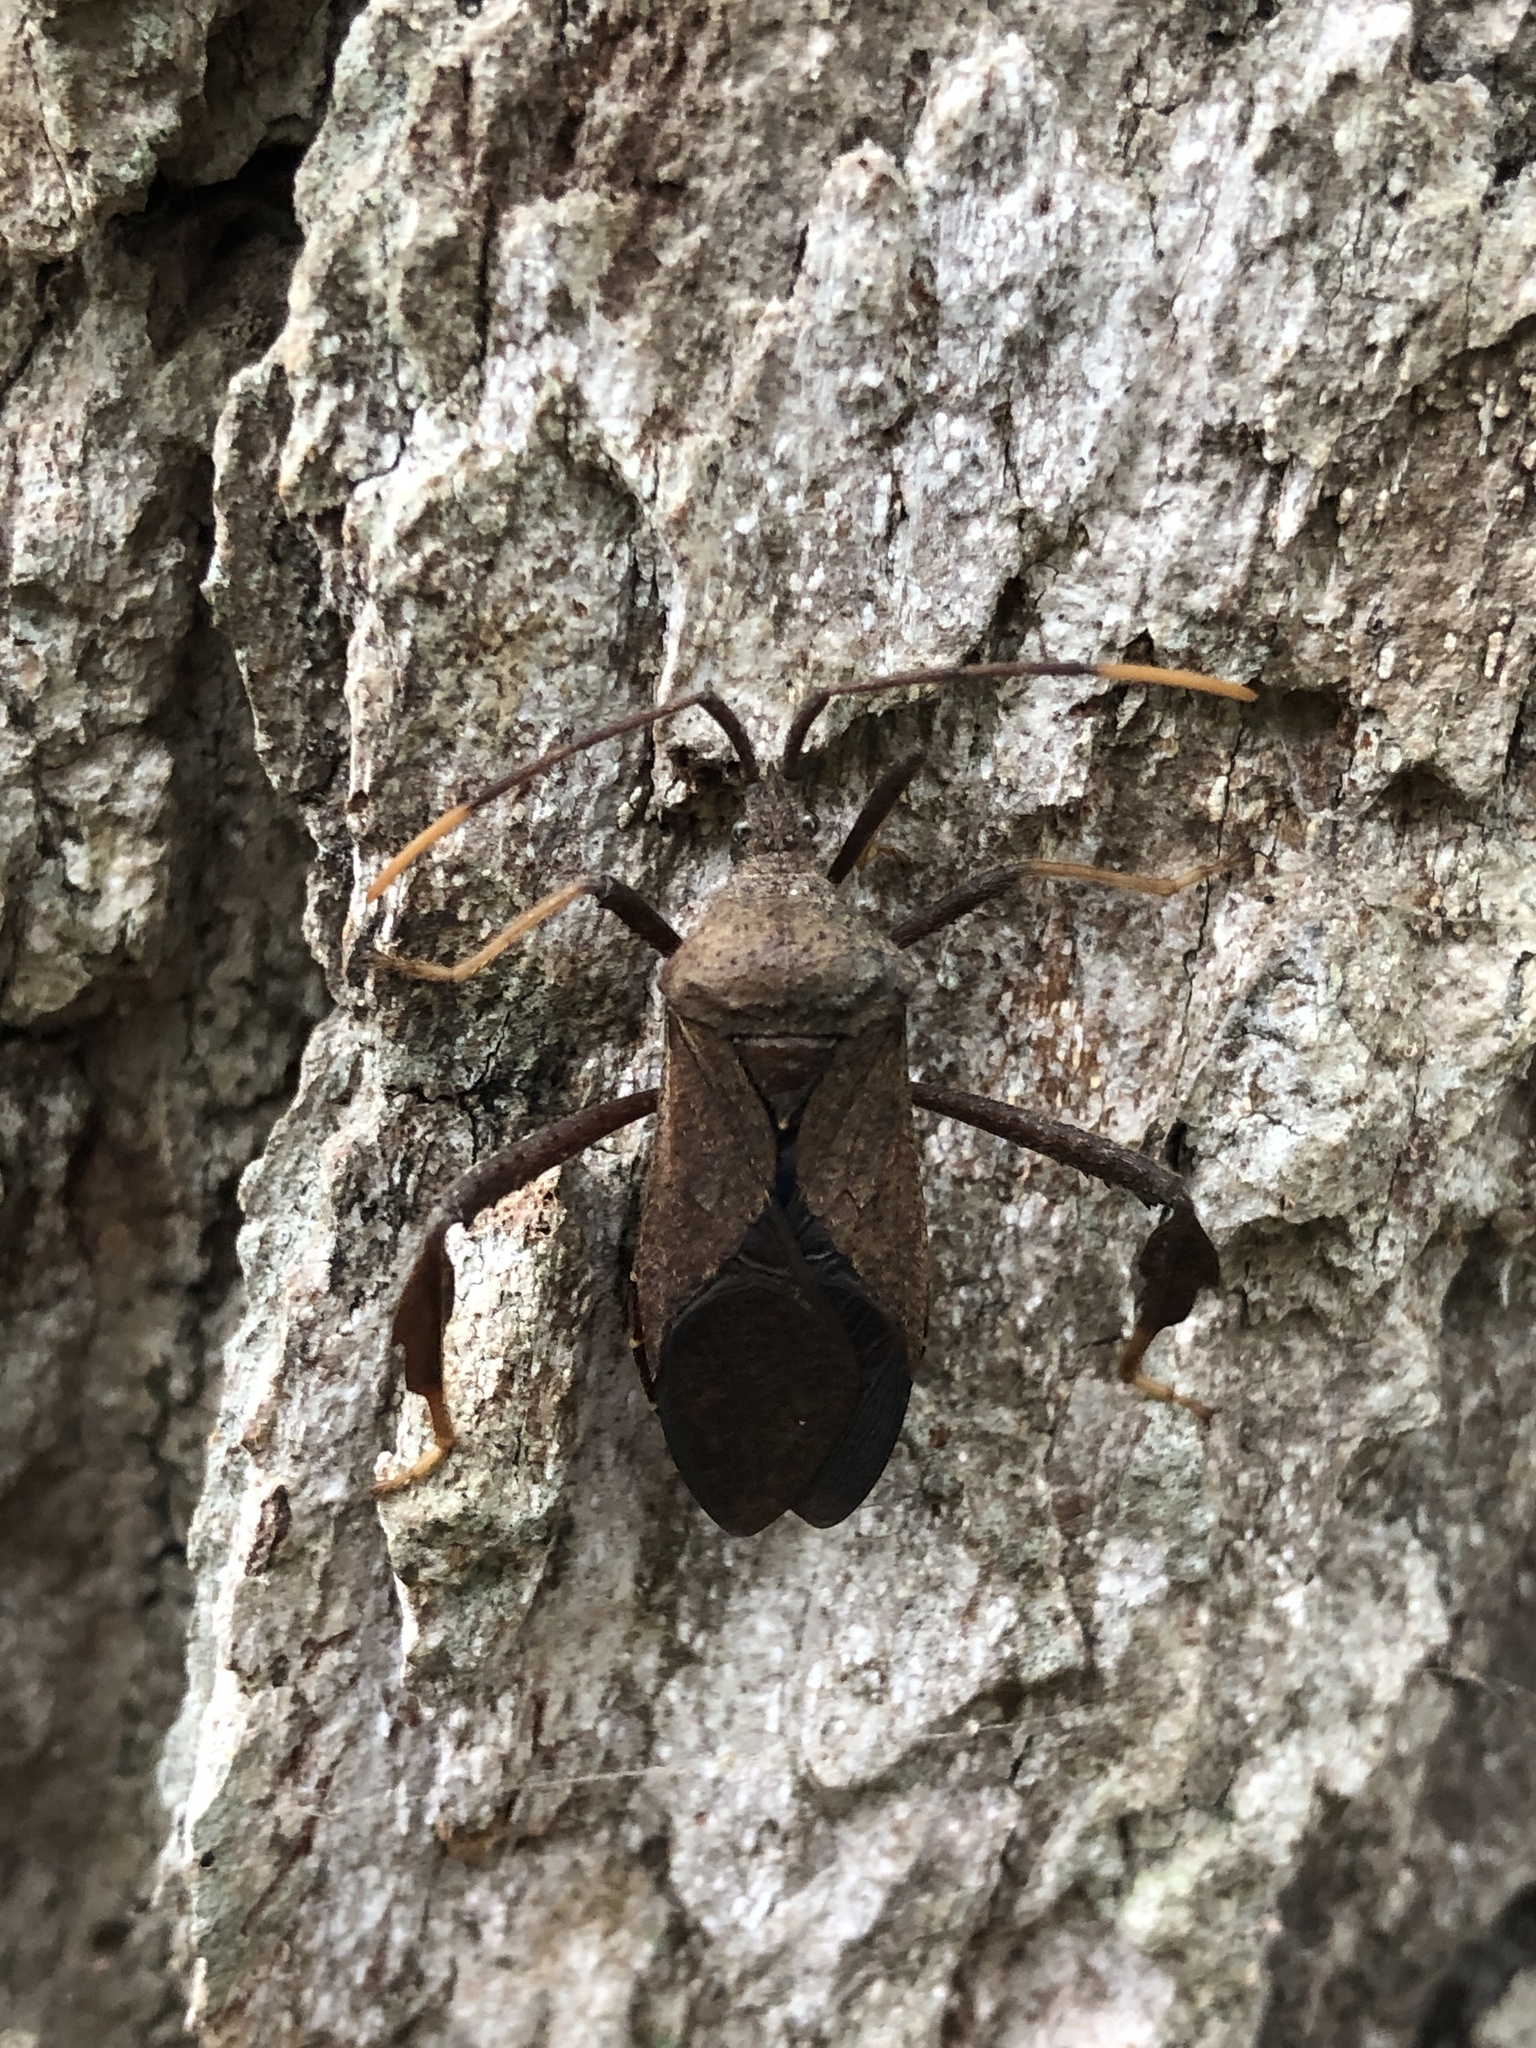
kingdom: Animalia
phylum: Arthropoda
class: Insecta
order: Hemiptera
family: Coreidae
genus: Acanthocephala
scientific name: Acanthocephala terminalis
